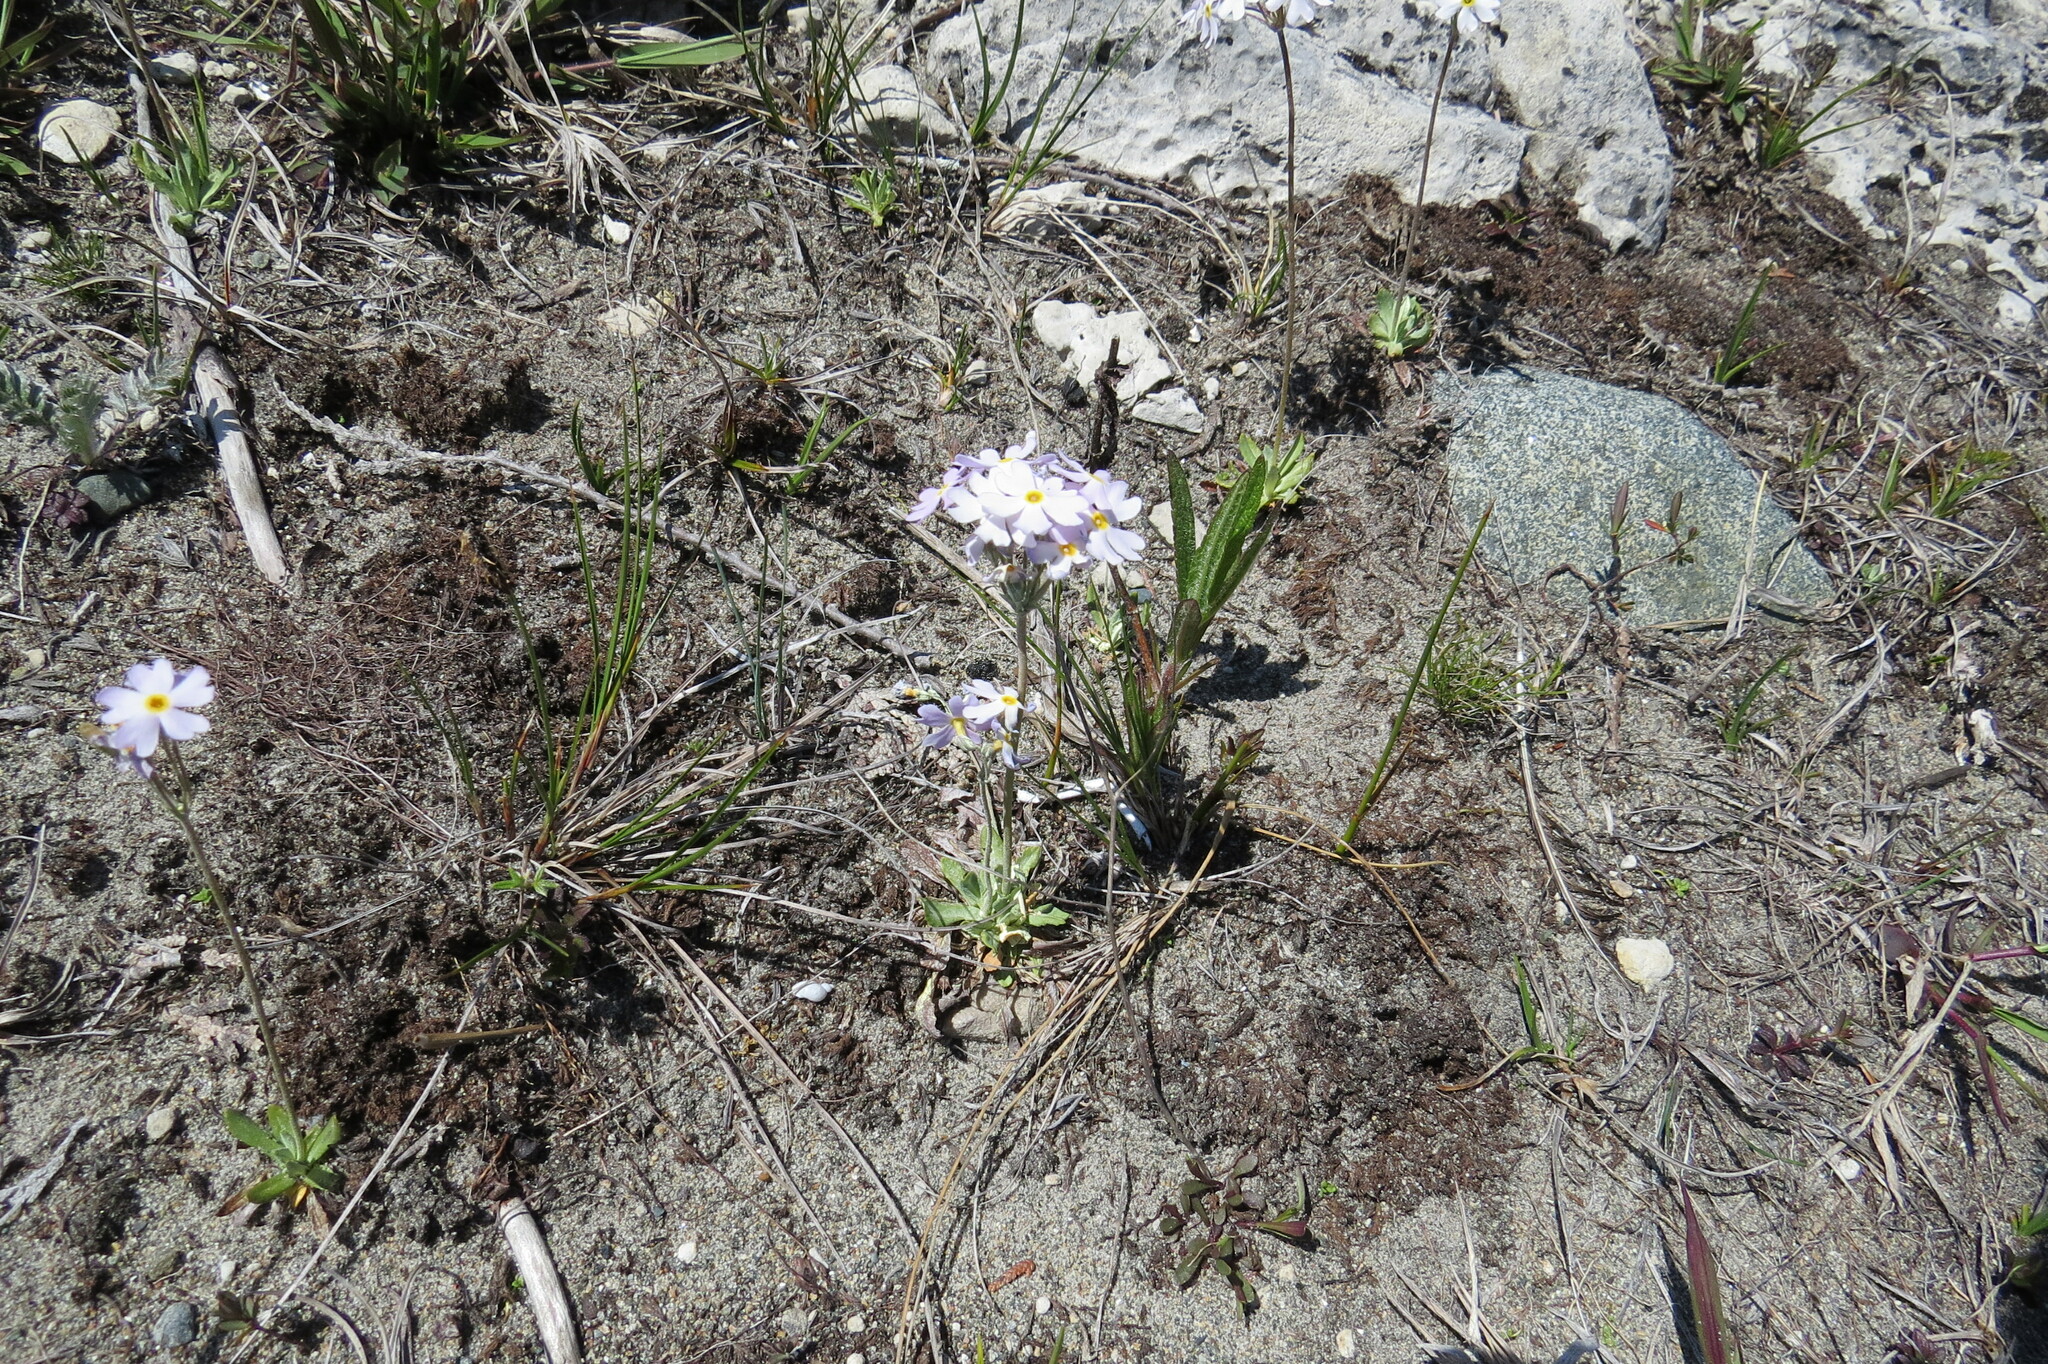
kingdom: Plantae
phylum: Tracheophyta
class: Magnoliopsida
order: Ericales
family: Primulaceae
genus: Primula
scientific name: Primula mistassinica
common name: Bird's-eye primrose
